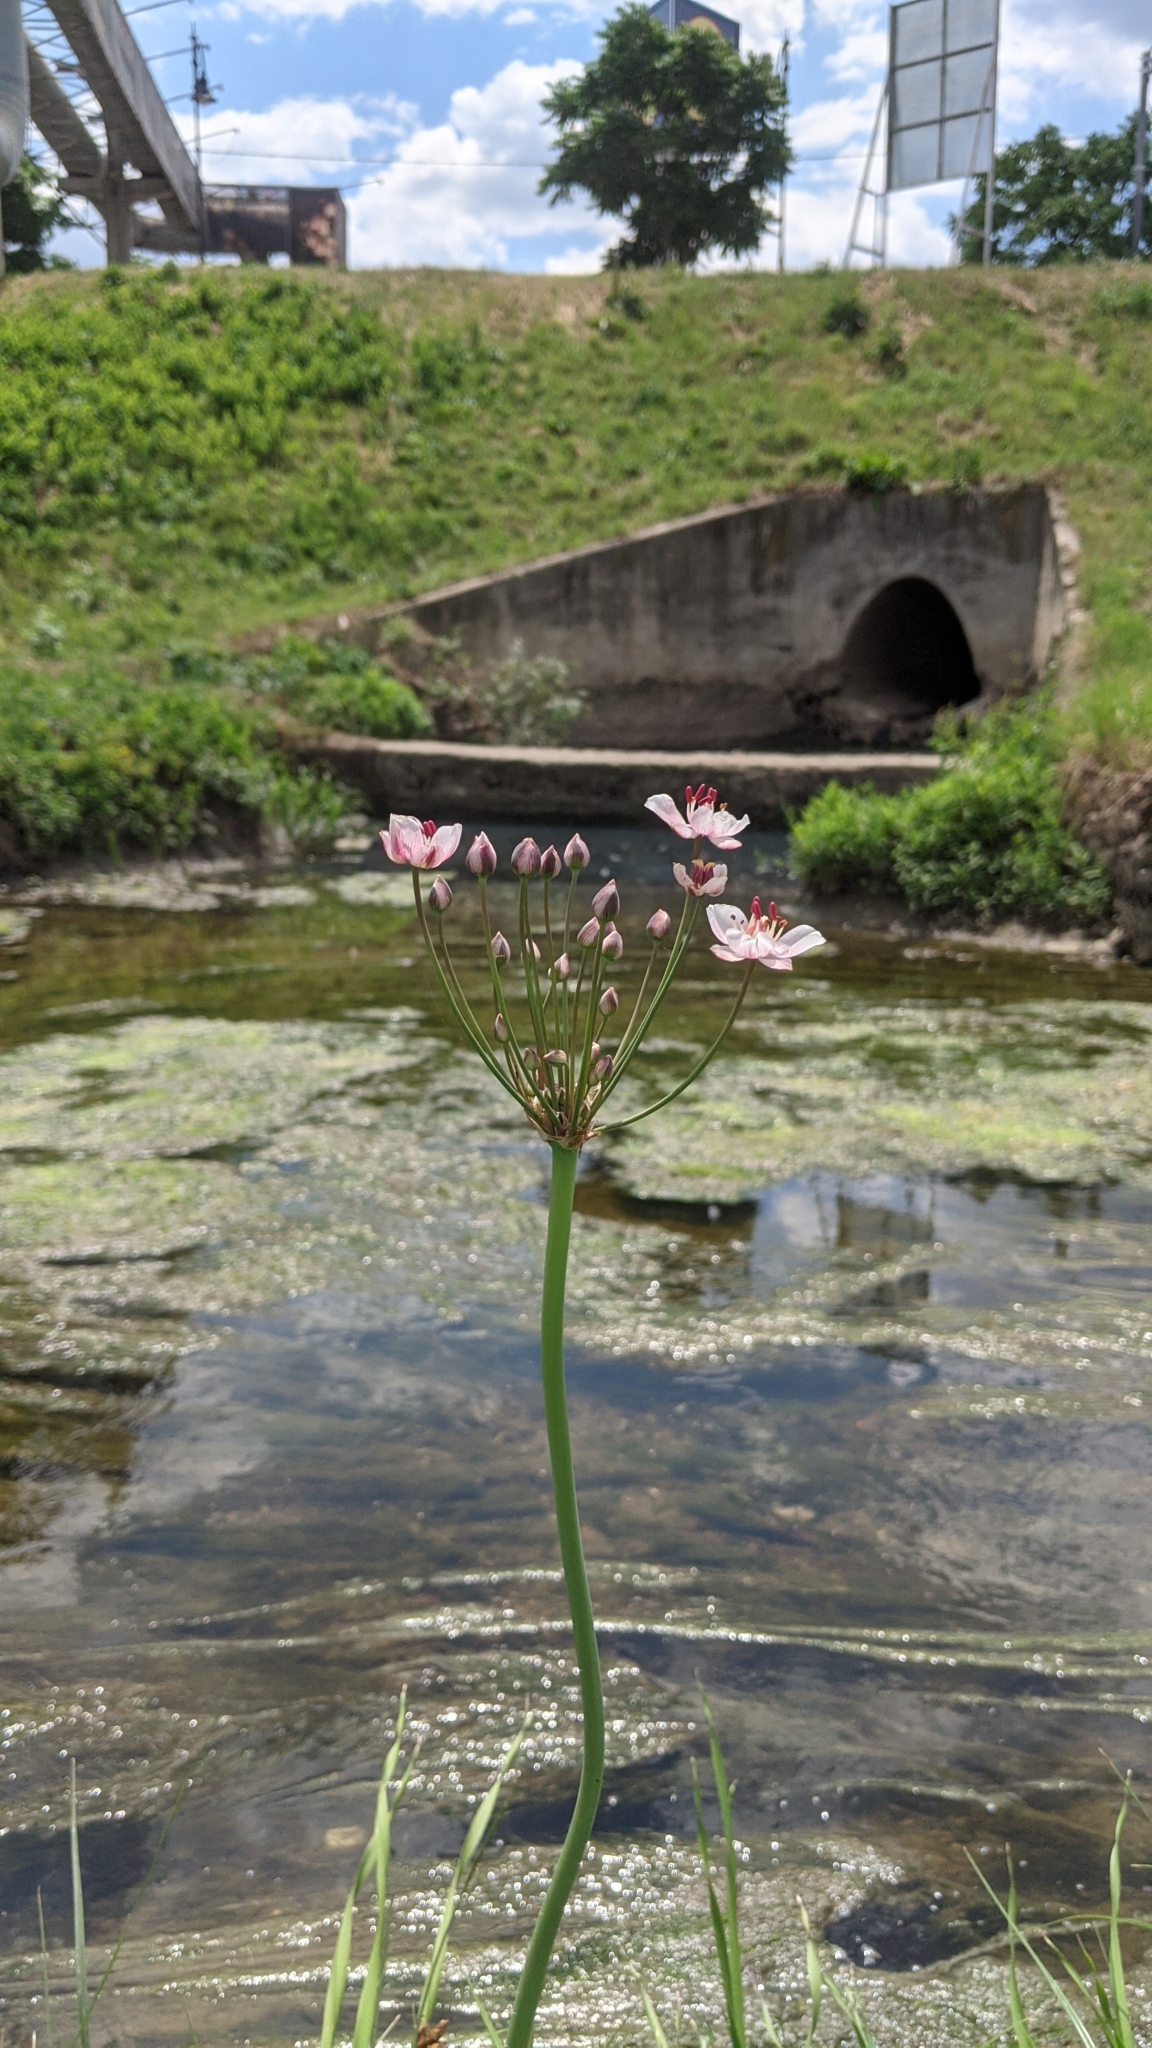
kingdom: Plantae
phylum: Tracheophyta
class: Liliopsida
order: Alismatales
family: Butomaceae
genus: Butomus
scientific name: Butomus umbellatus
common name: Flowering-rush
